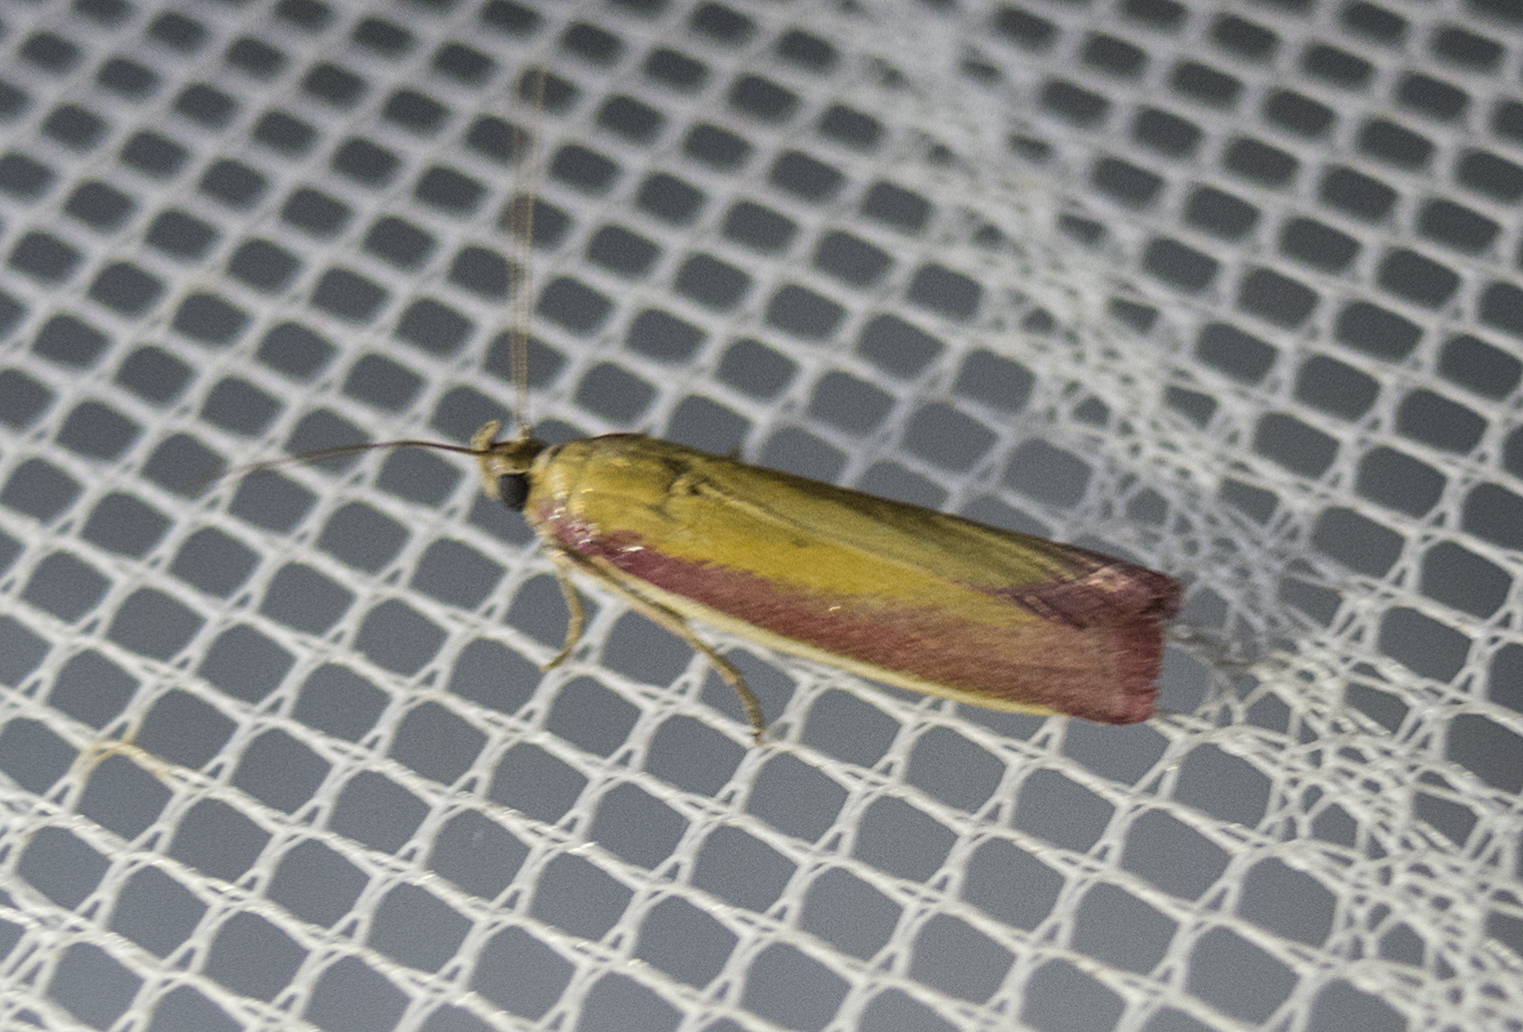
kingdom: Animalia
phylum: Arthropoda
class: Insecta
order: Lepidoptera
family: Pyralidae
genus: Oncocera
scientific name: Oncocera semirubella
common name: Rosy-striped knot-horn
